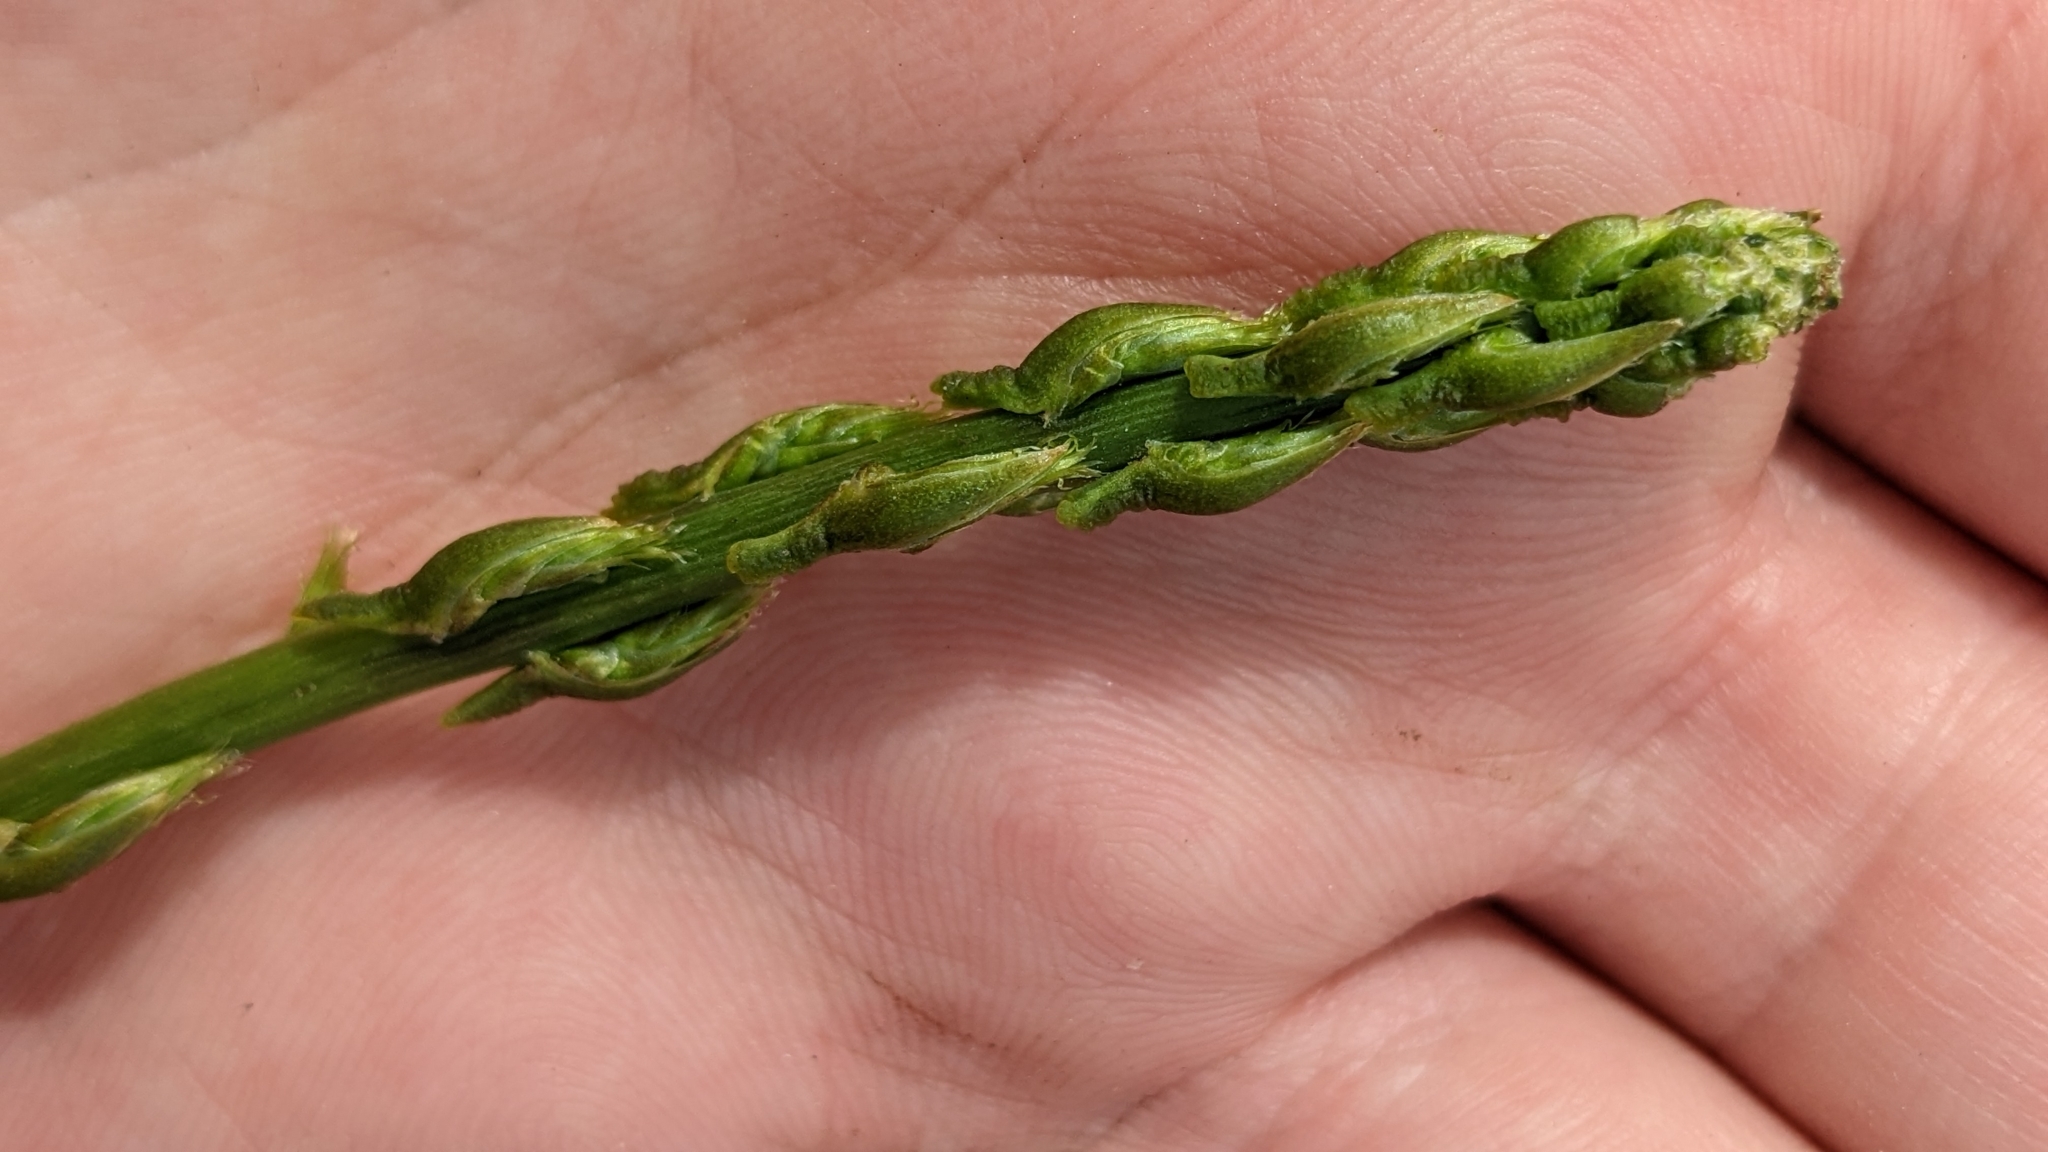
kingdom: Plantae
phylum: Tracheophyta
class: Liliopsida
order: Asparagales
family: Asparagaceae
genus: Asparagus
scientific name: Asparagus acutifolius
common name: Wild asparagus
